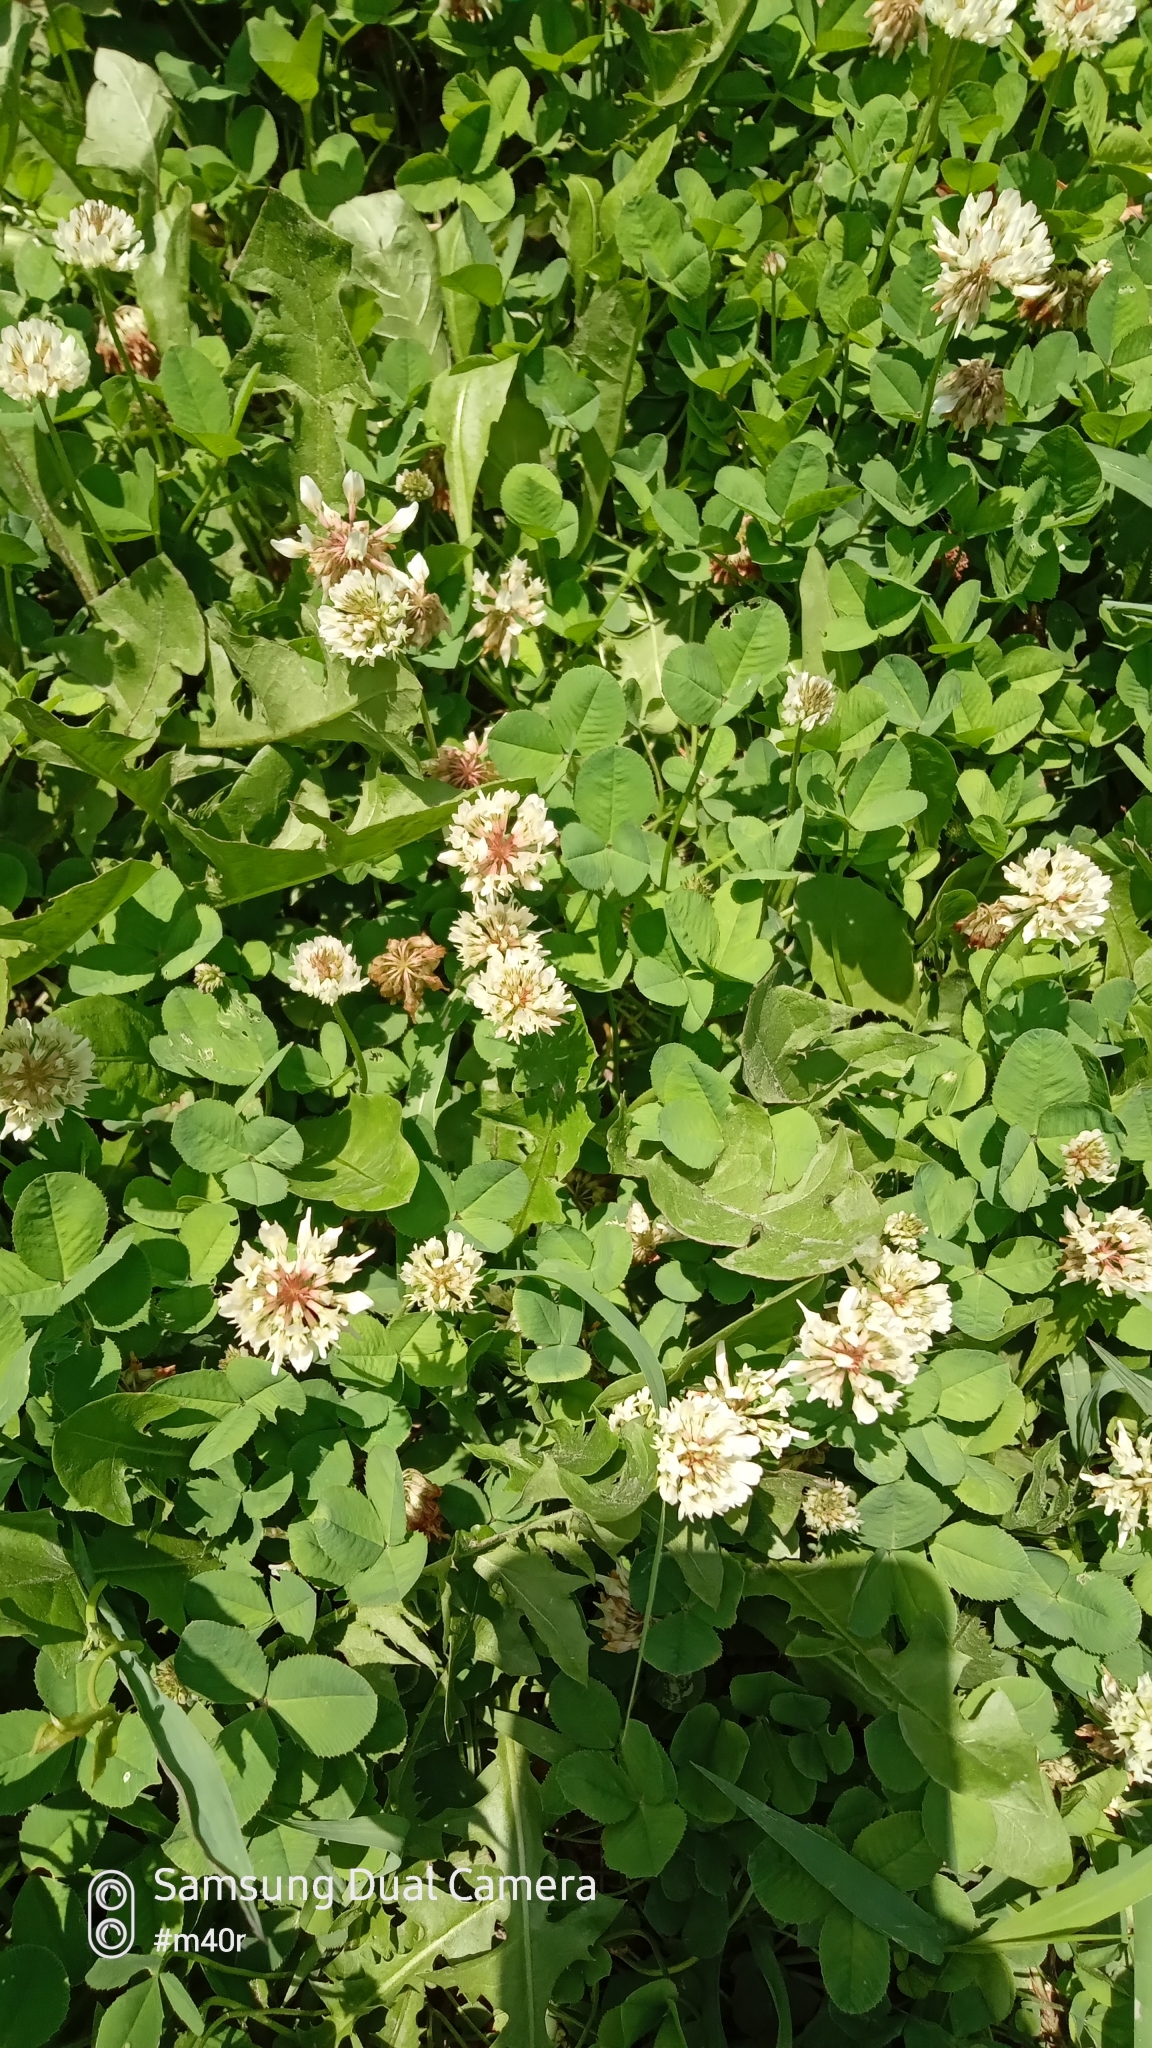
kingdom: Plantae
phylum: Tracheophyta
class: Magnoliopsida
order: Fabales
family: Fabaceae
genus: Trifolium
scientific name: Trifolium repens
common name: White clover
